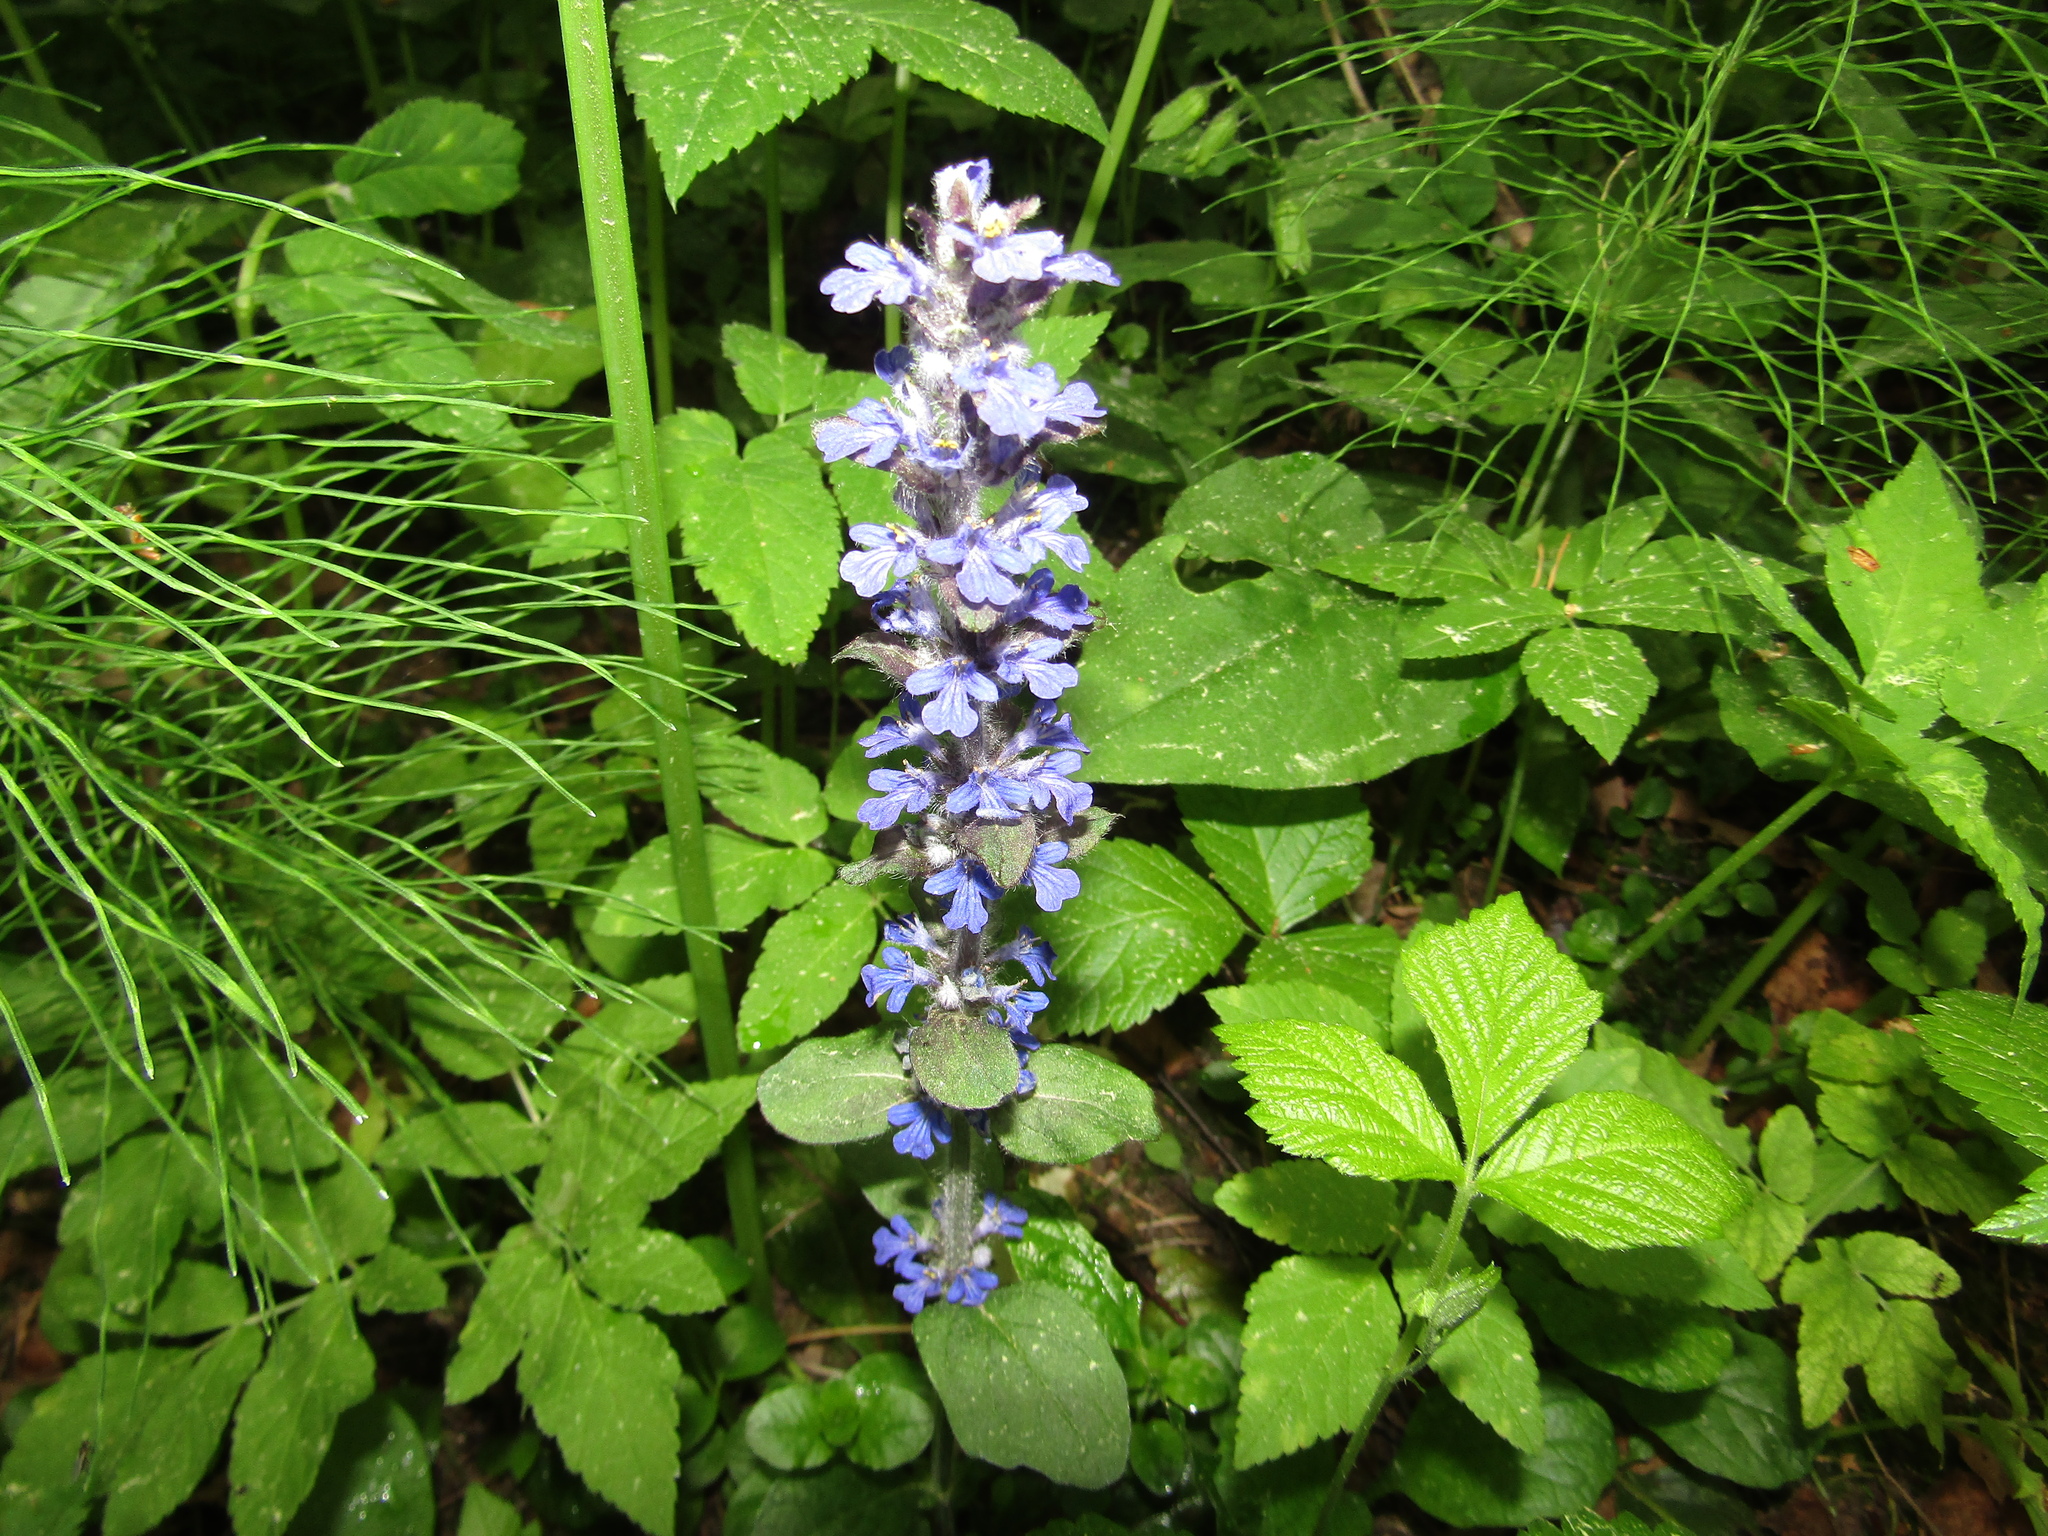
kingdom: Plantae
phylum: Tracheophyta
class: Magnoliopsida
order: Lamiales
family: Lamiaceae
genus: Ajuga
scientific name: Ajuga reptans
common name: Bugle
